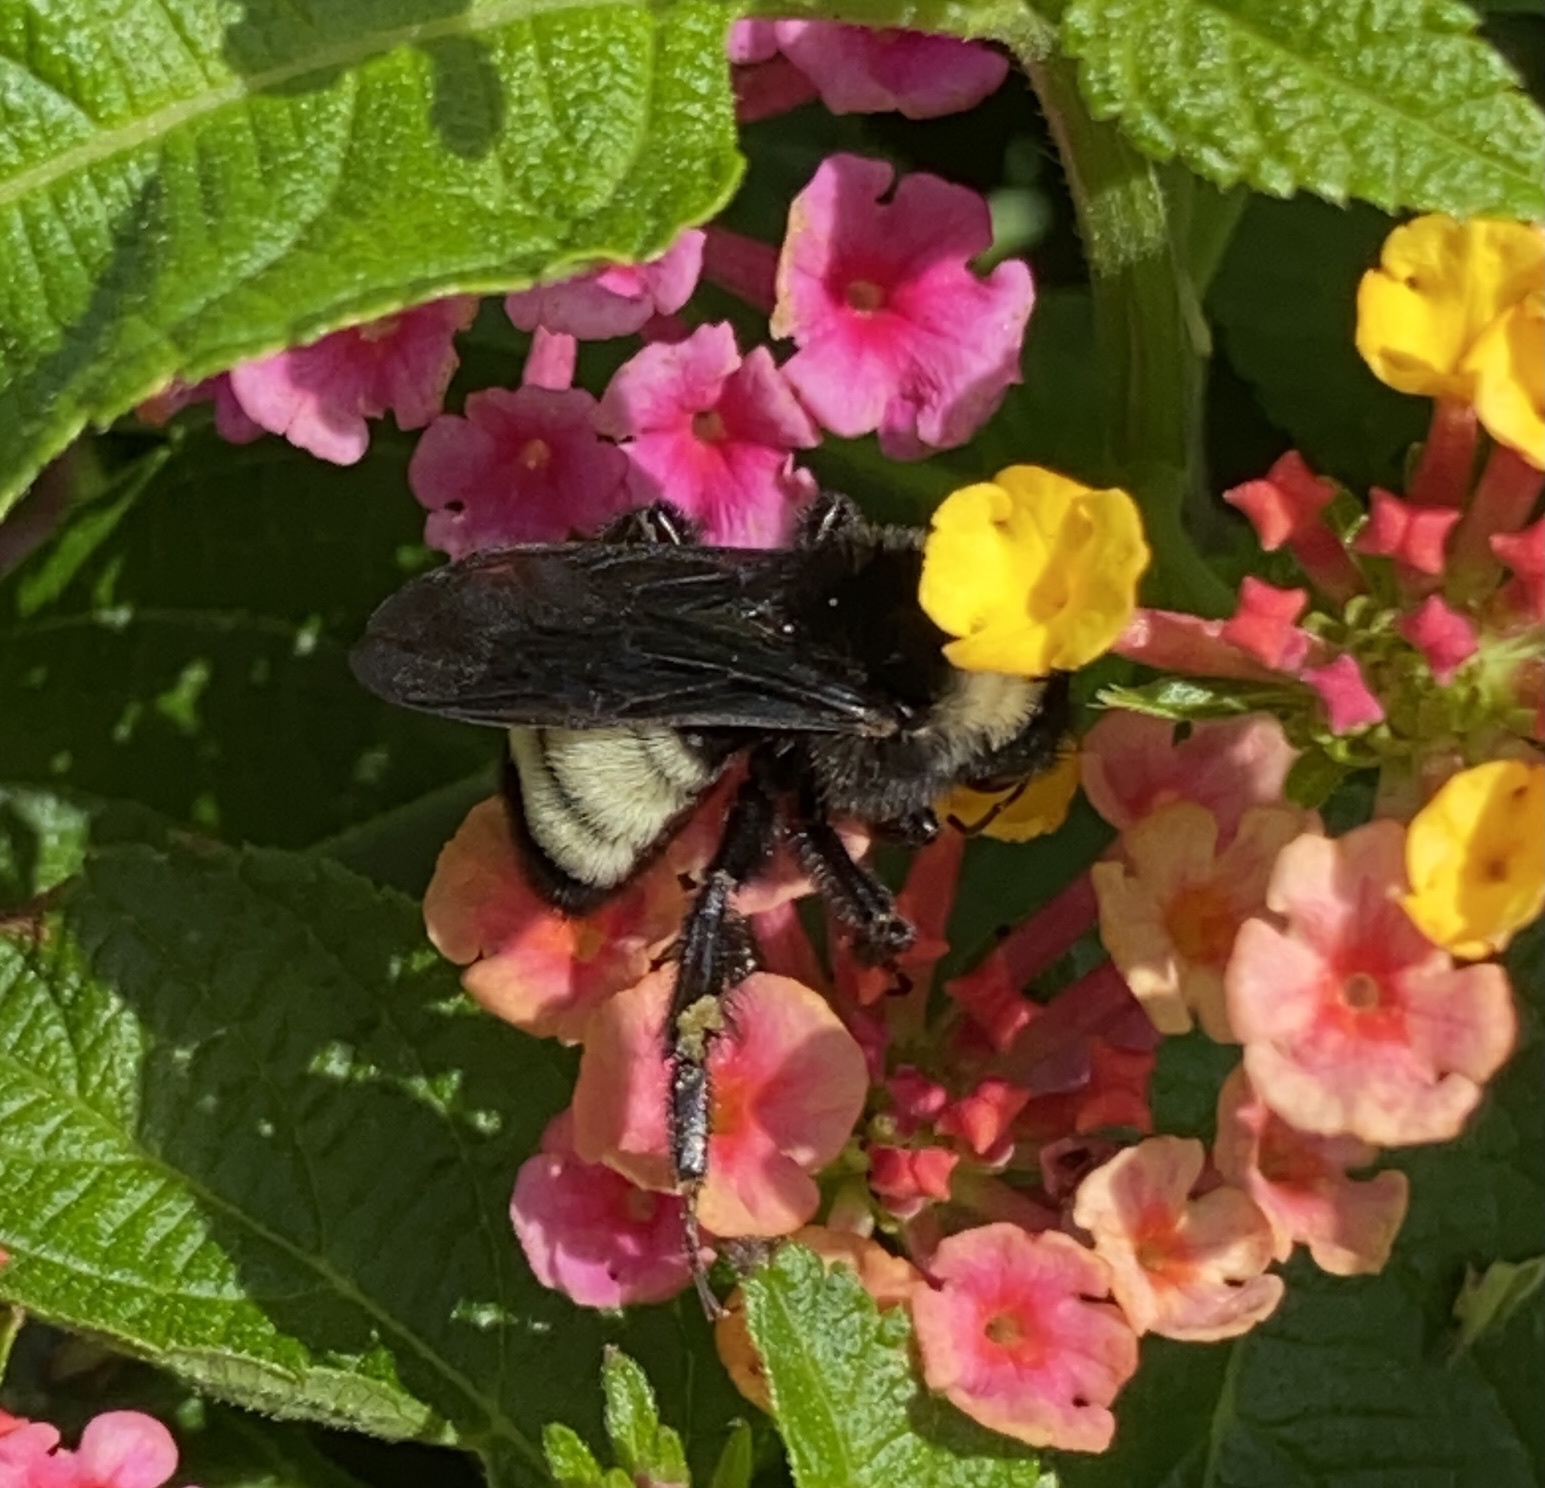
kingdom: Animalia
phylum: Arthropoda
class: Insecta
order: Hymenoptera
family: Apidae
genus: Bombus
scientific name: Bombus pensylvanicus
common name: Bumble bee
